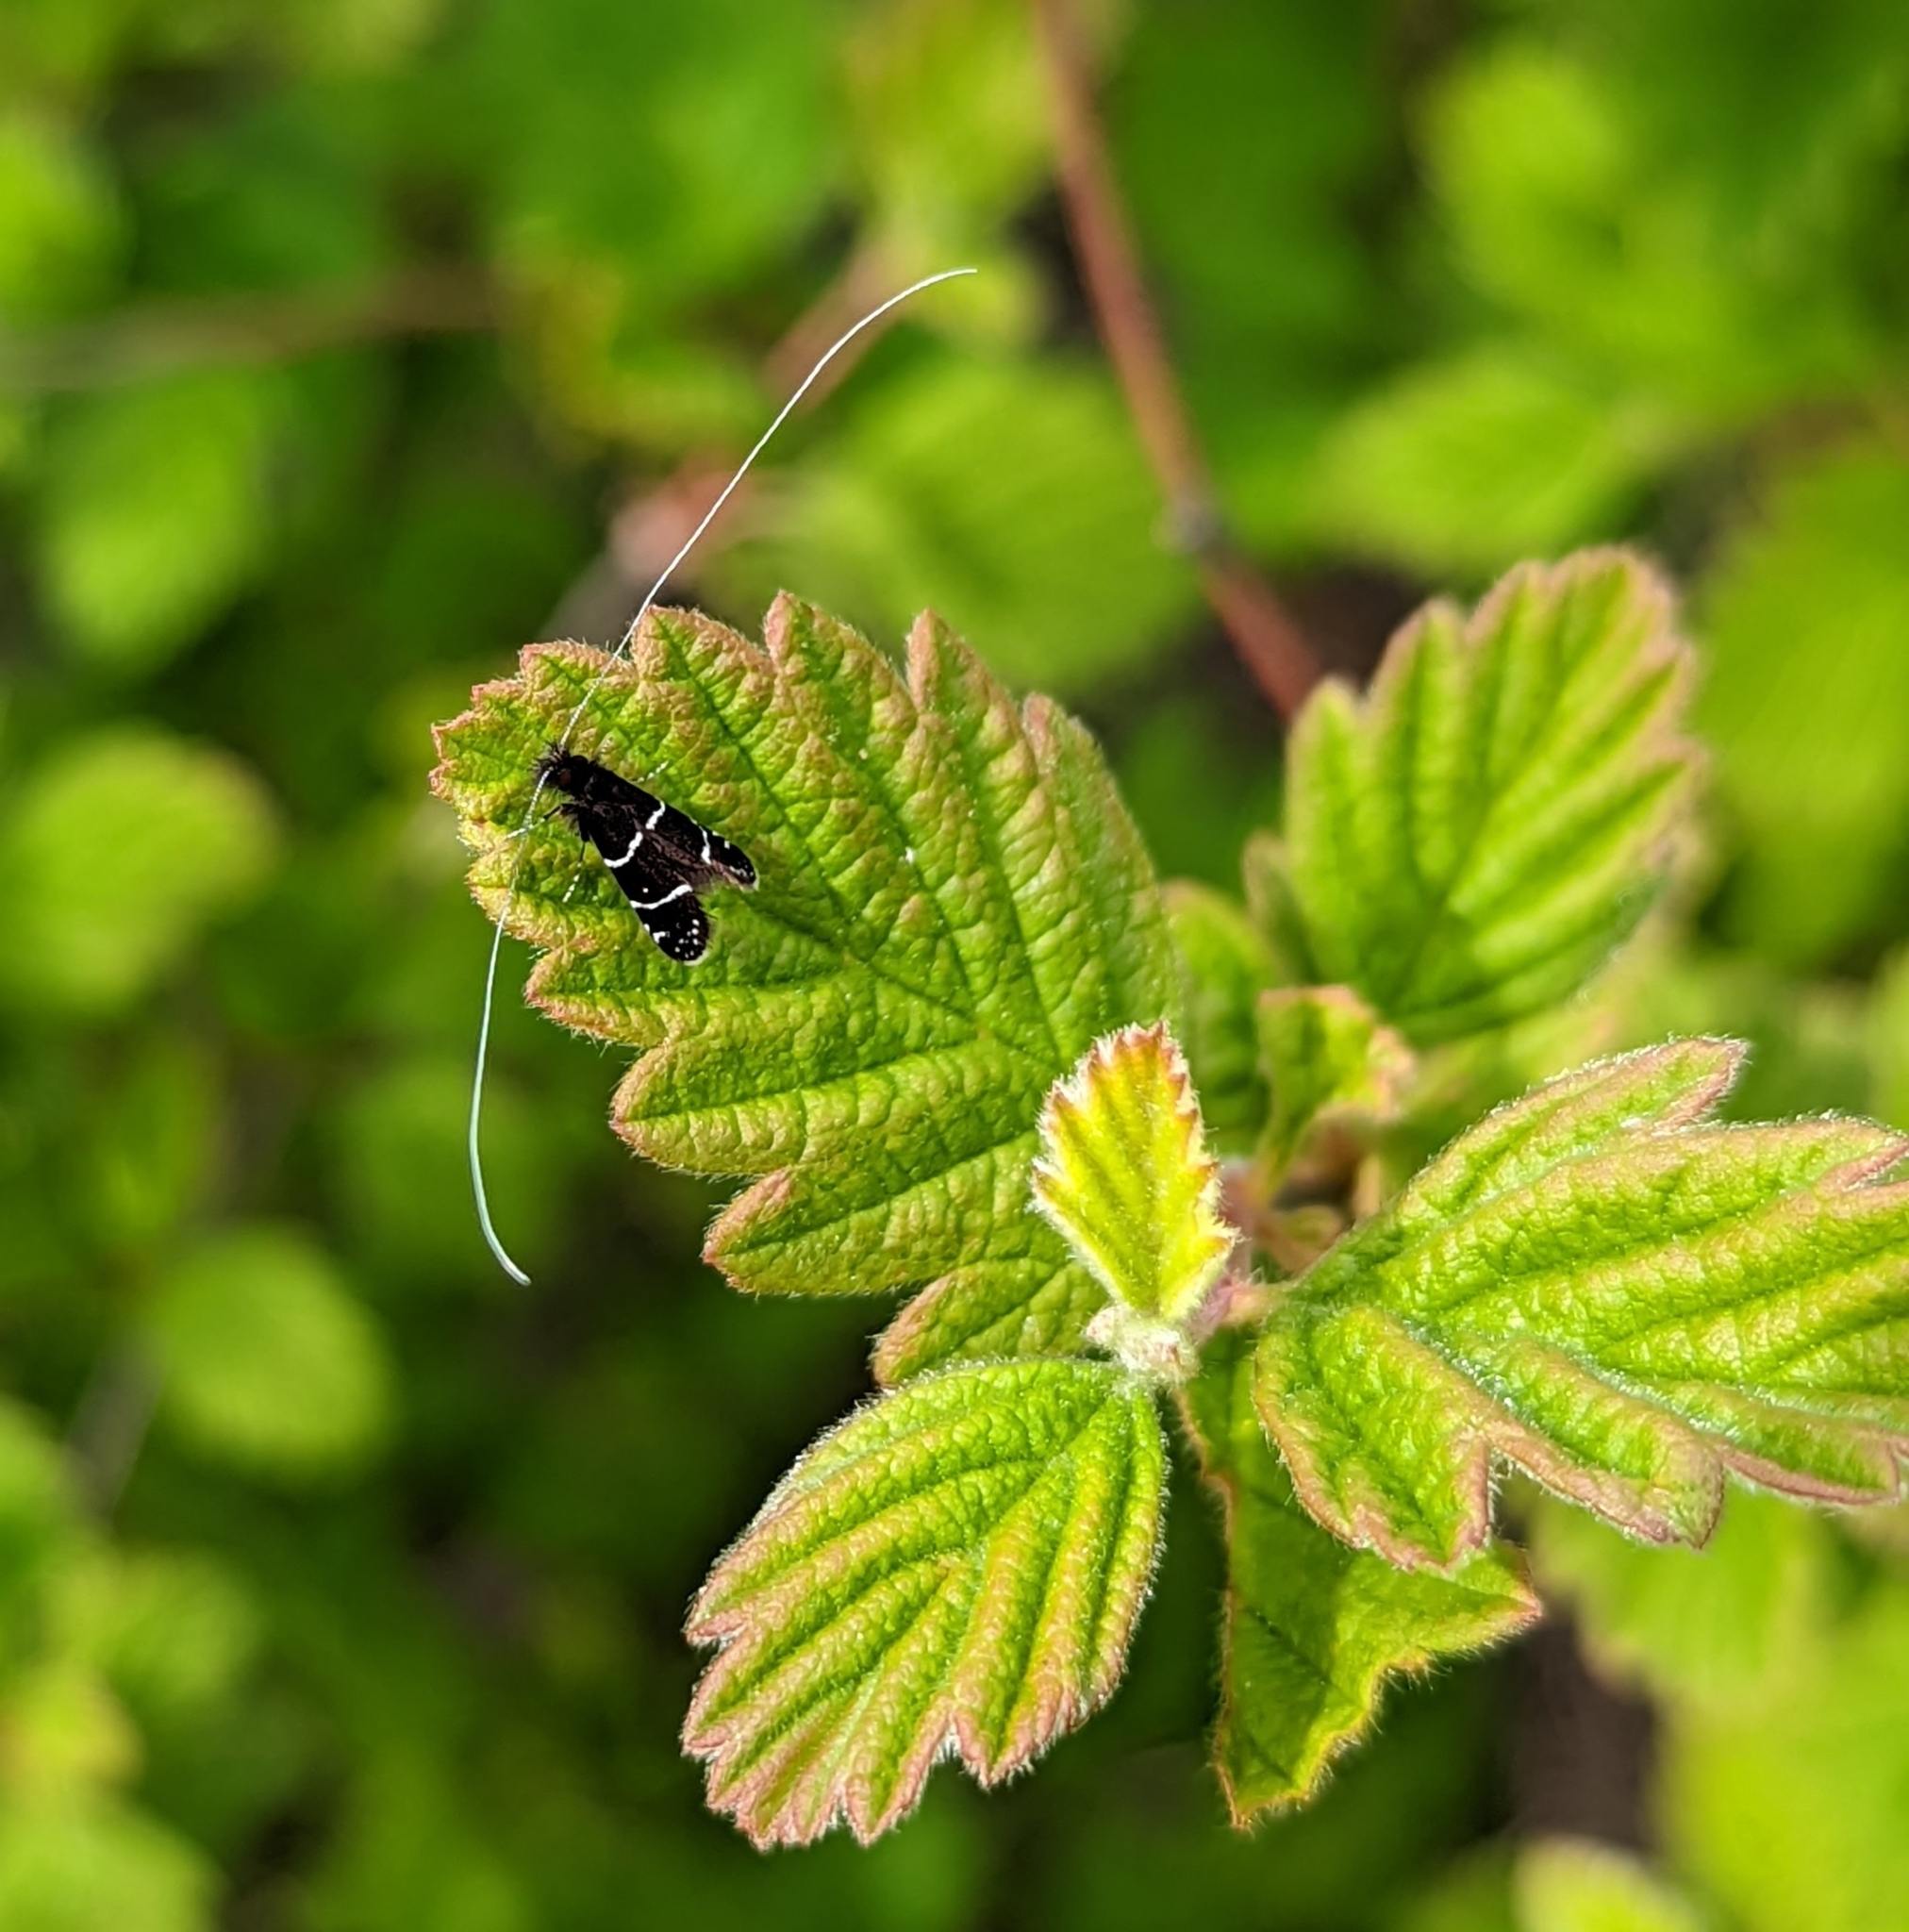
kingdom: Animalia
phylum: Arthropoda
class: Insecta
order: Lepidoptera
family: Adelidae
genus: Adela
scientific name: Adela septentrionella
